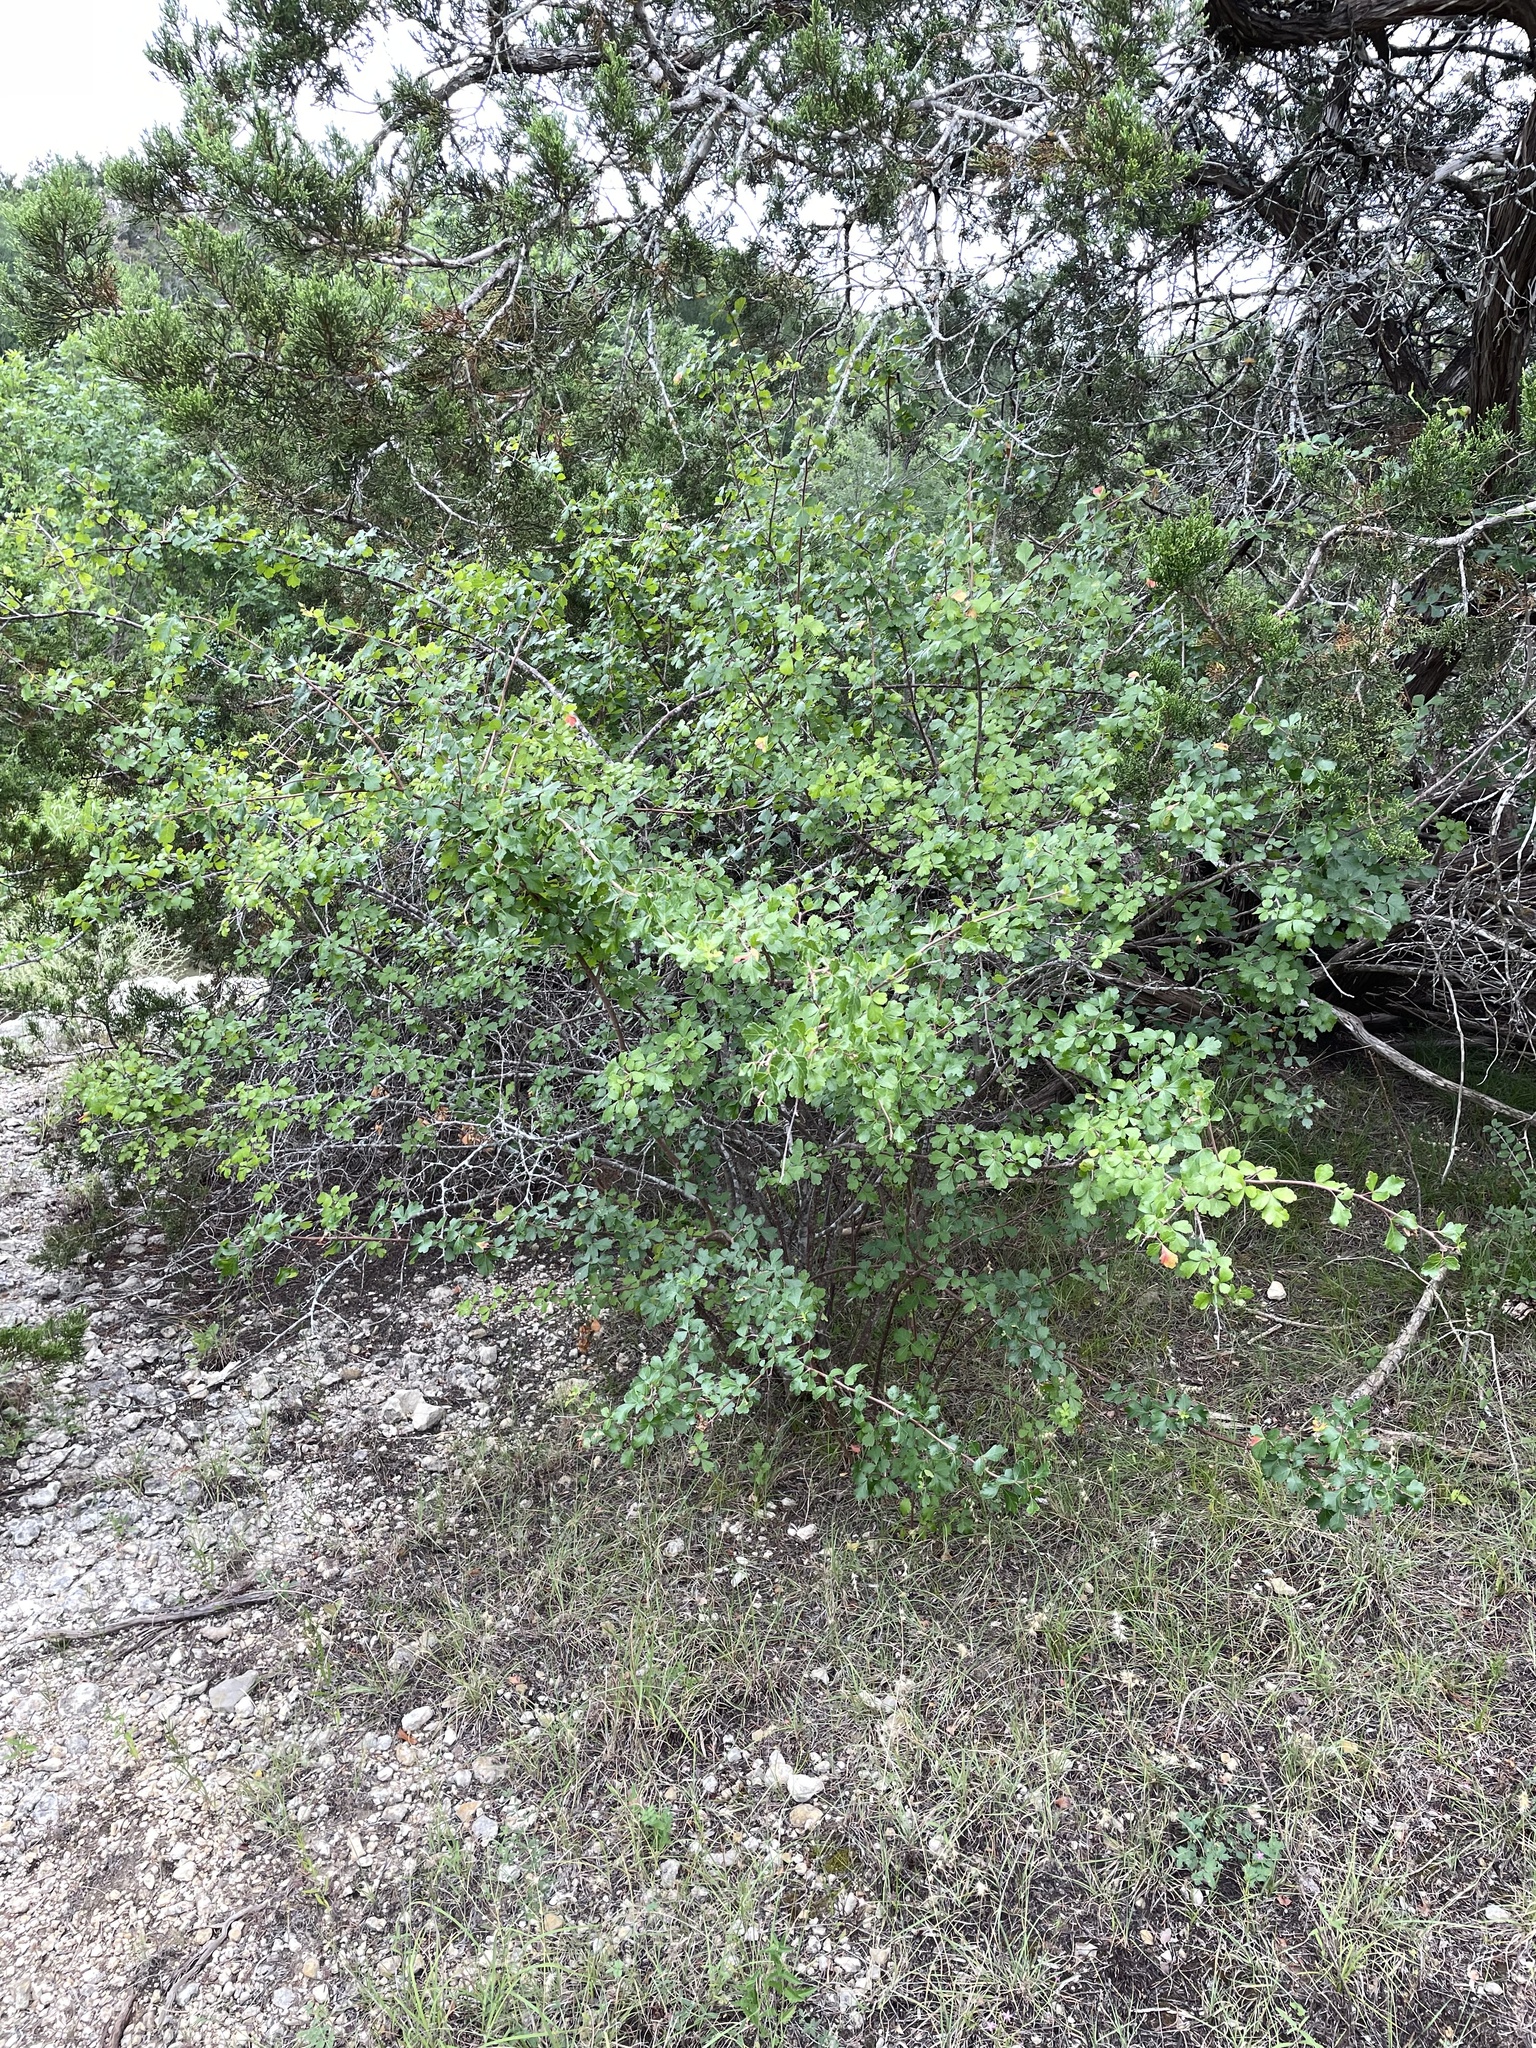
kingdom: Plantae
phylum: Tracheophyta
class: Magnoliopsida
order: Sapindales
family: Anacardiaceae
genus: Rhus
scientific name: Rhus aromatica
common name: Aromatic sumac
